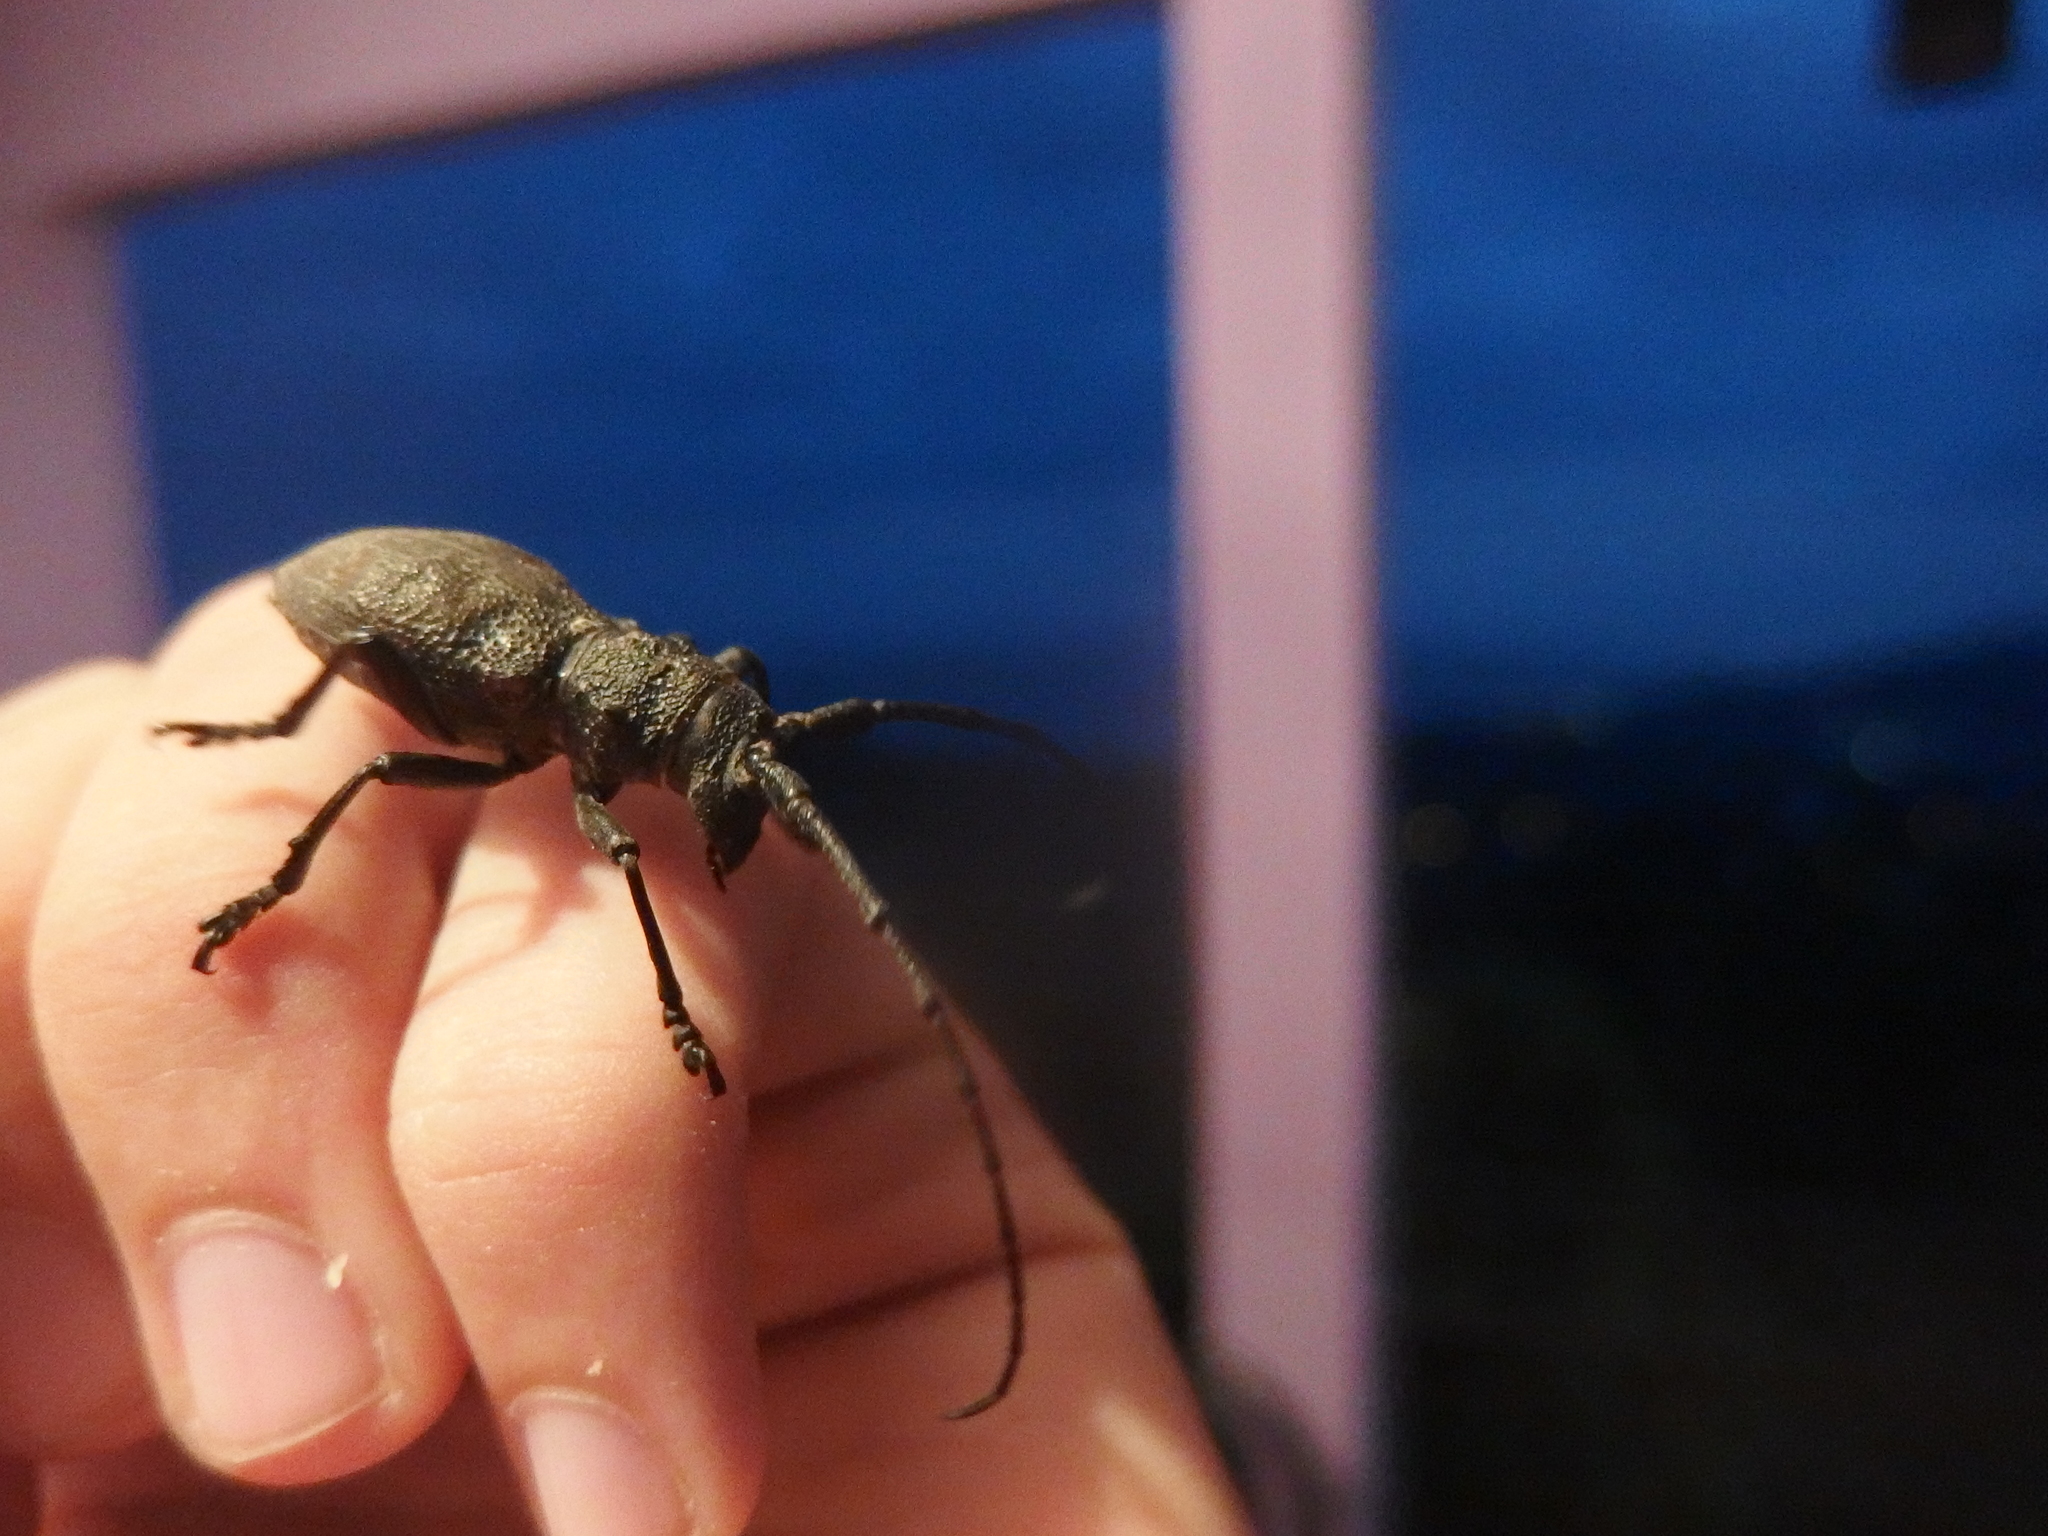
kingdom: Animalia
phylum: Arthropoda
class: Insecta
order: Coleoptera
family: Cerambycidae
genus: Morimus
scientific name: Morimus verecundus
